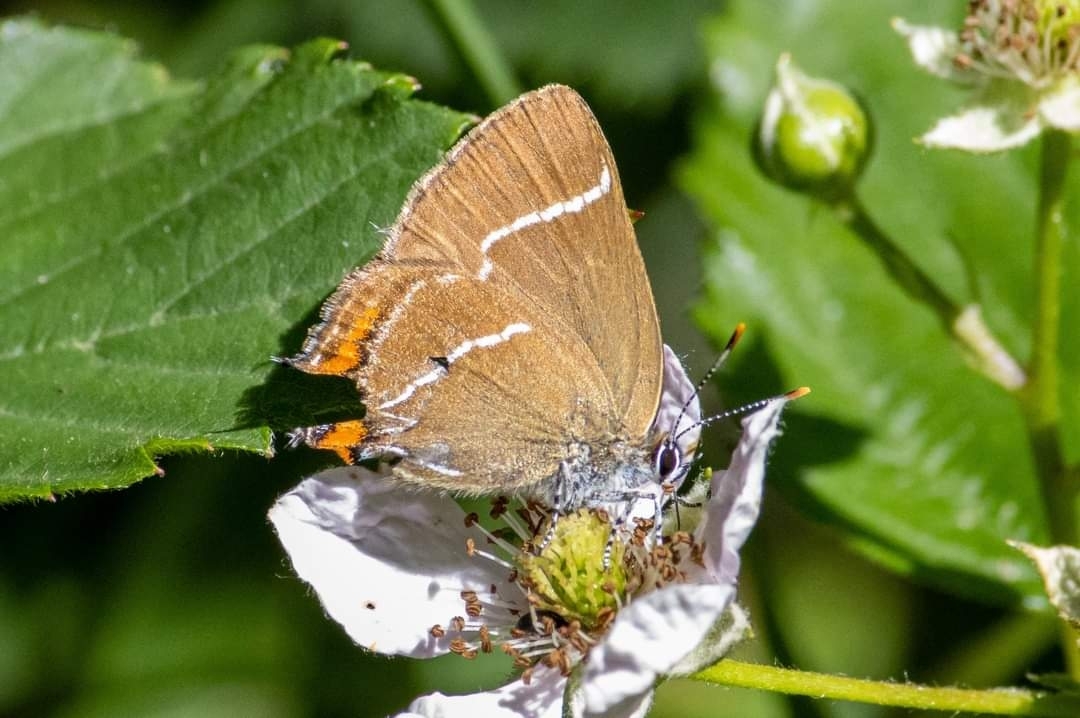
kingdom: Animalia
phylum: Arthropoda
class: Insecta
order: Lepidoptera
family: Lycaenidae
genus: Satyrium
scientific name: Satyrium w-album
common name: White-letter hairstreak
